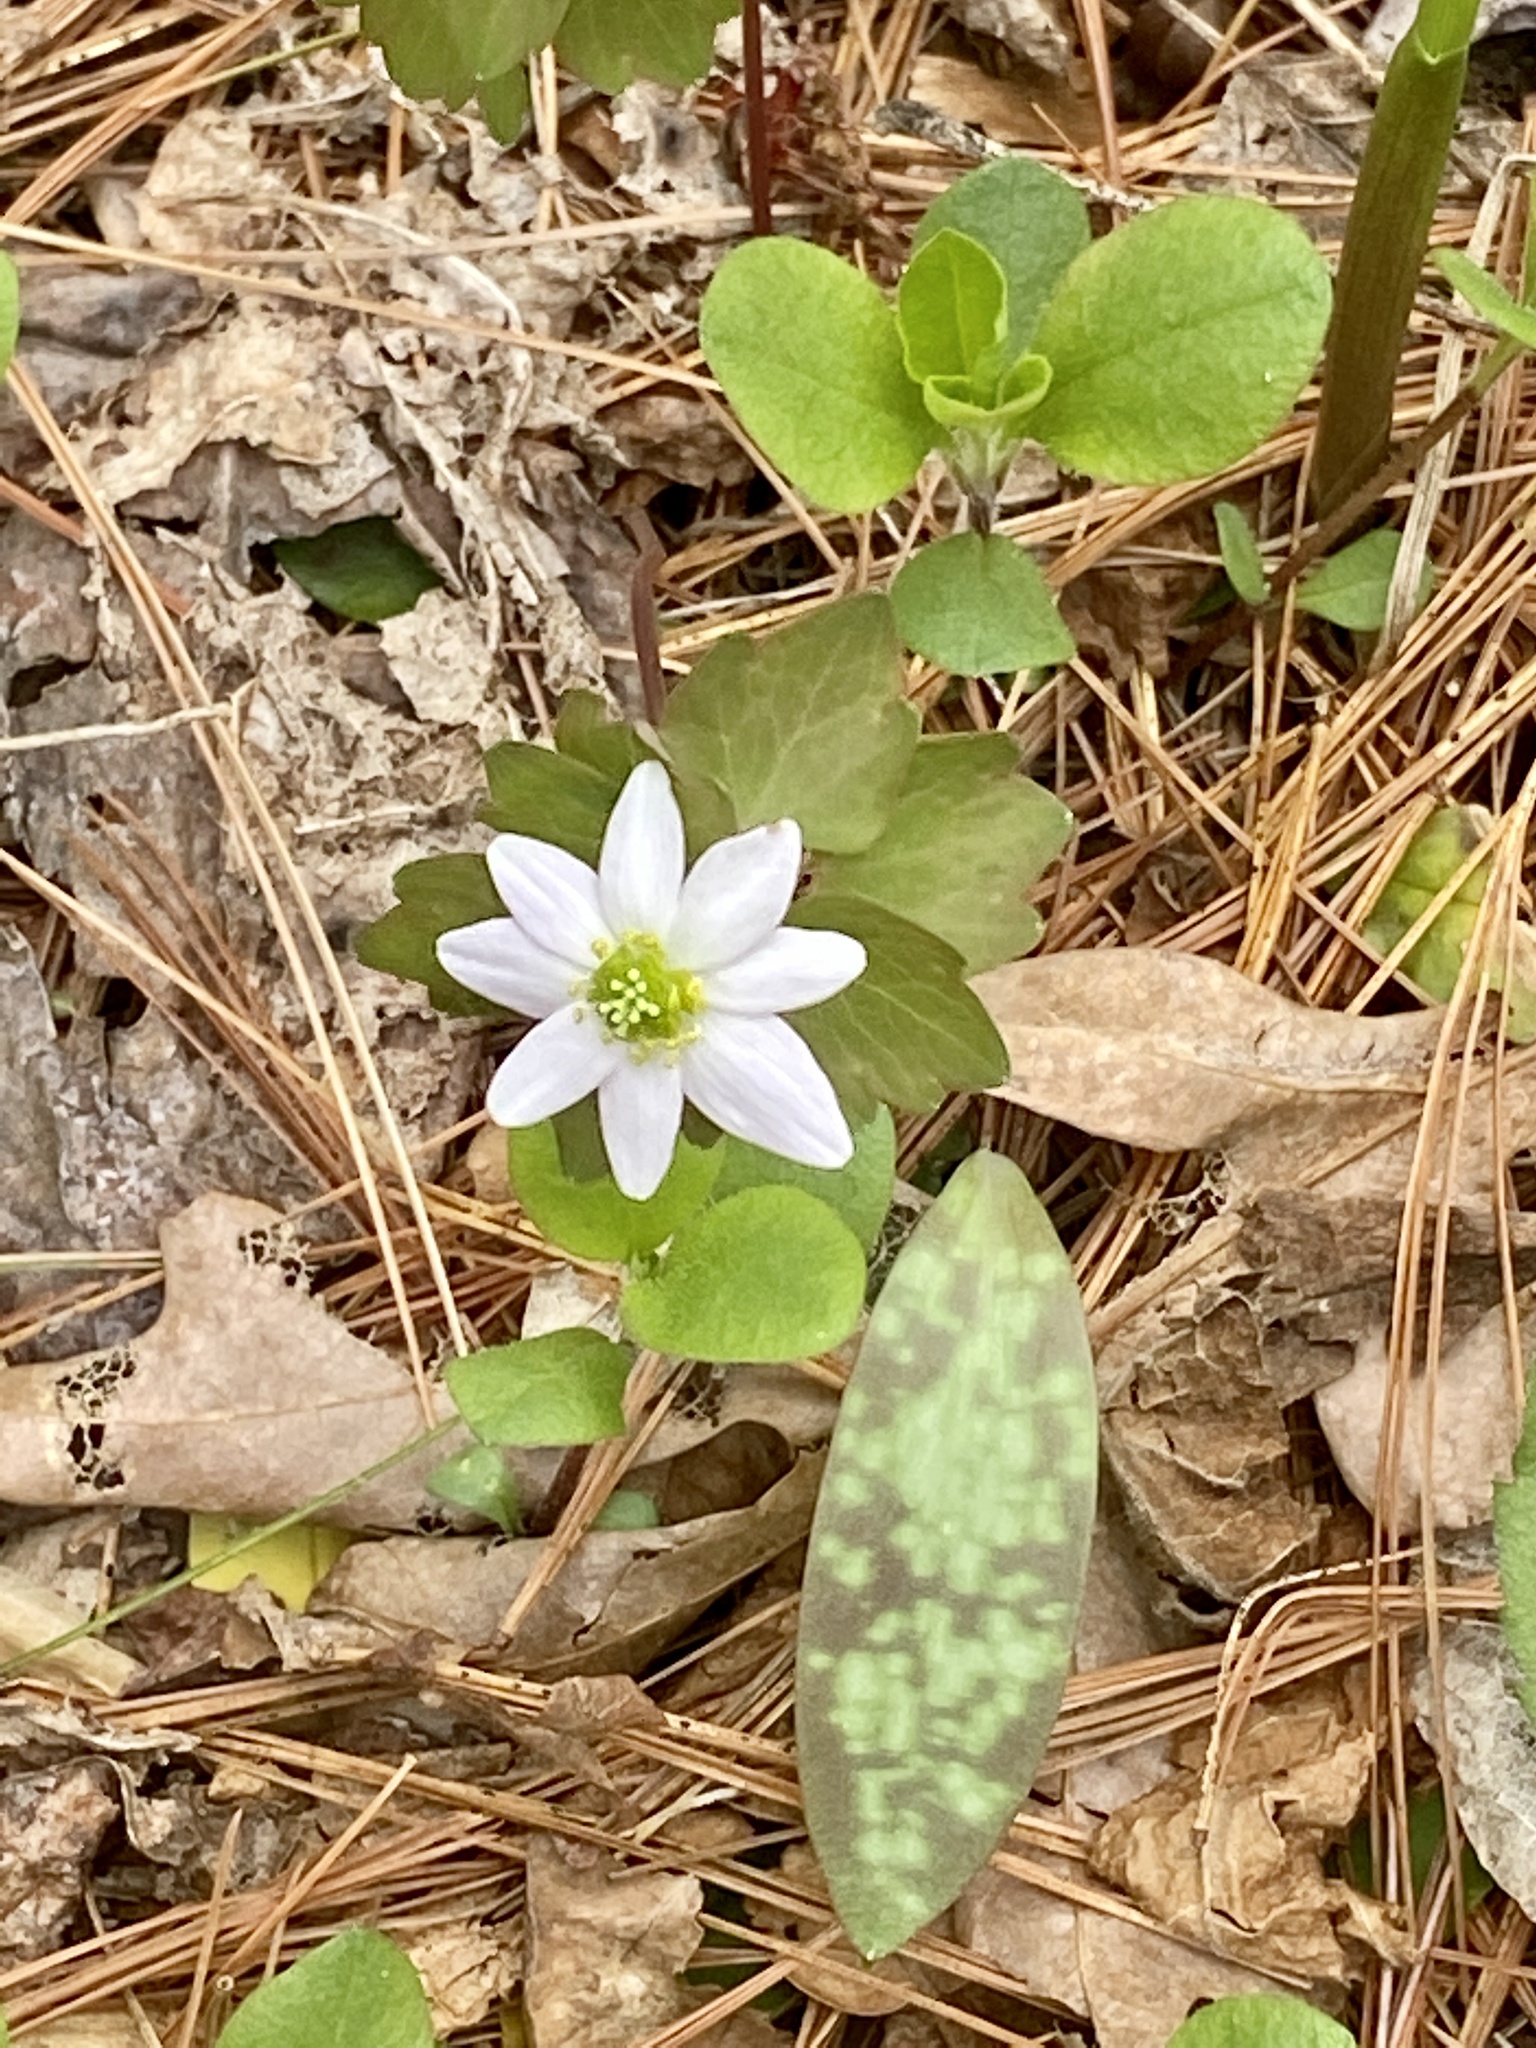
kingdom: Plantae
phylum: Tracheophyta
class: Magnoliopsida
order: Ranunculales
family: Ranunculaceae
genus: Thalictrum
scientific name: Thalictrum thalictroides
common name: Rue-anemone
